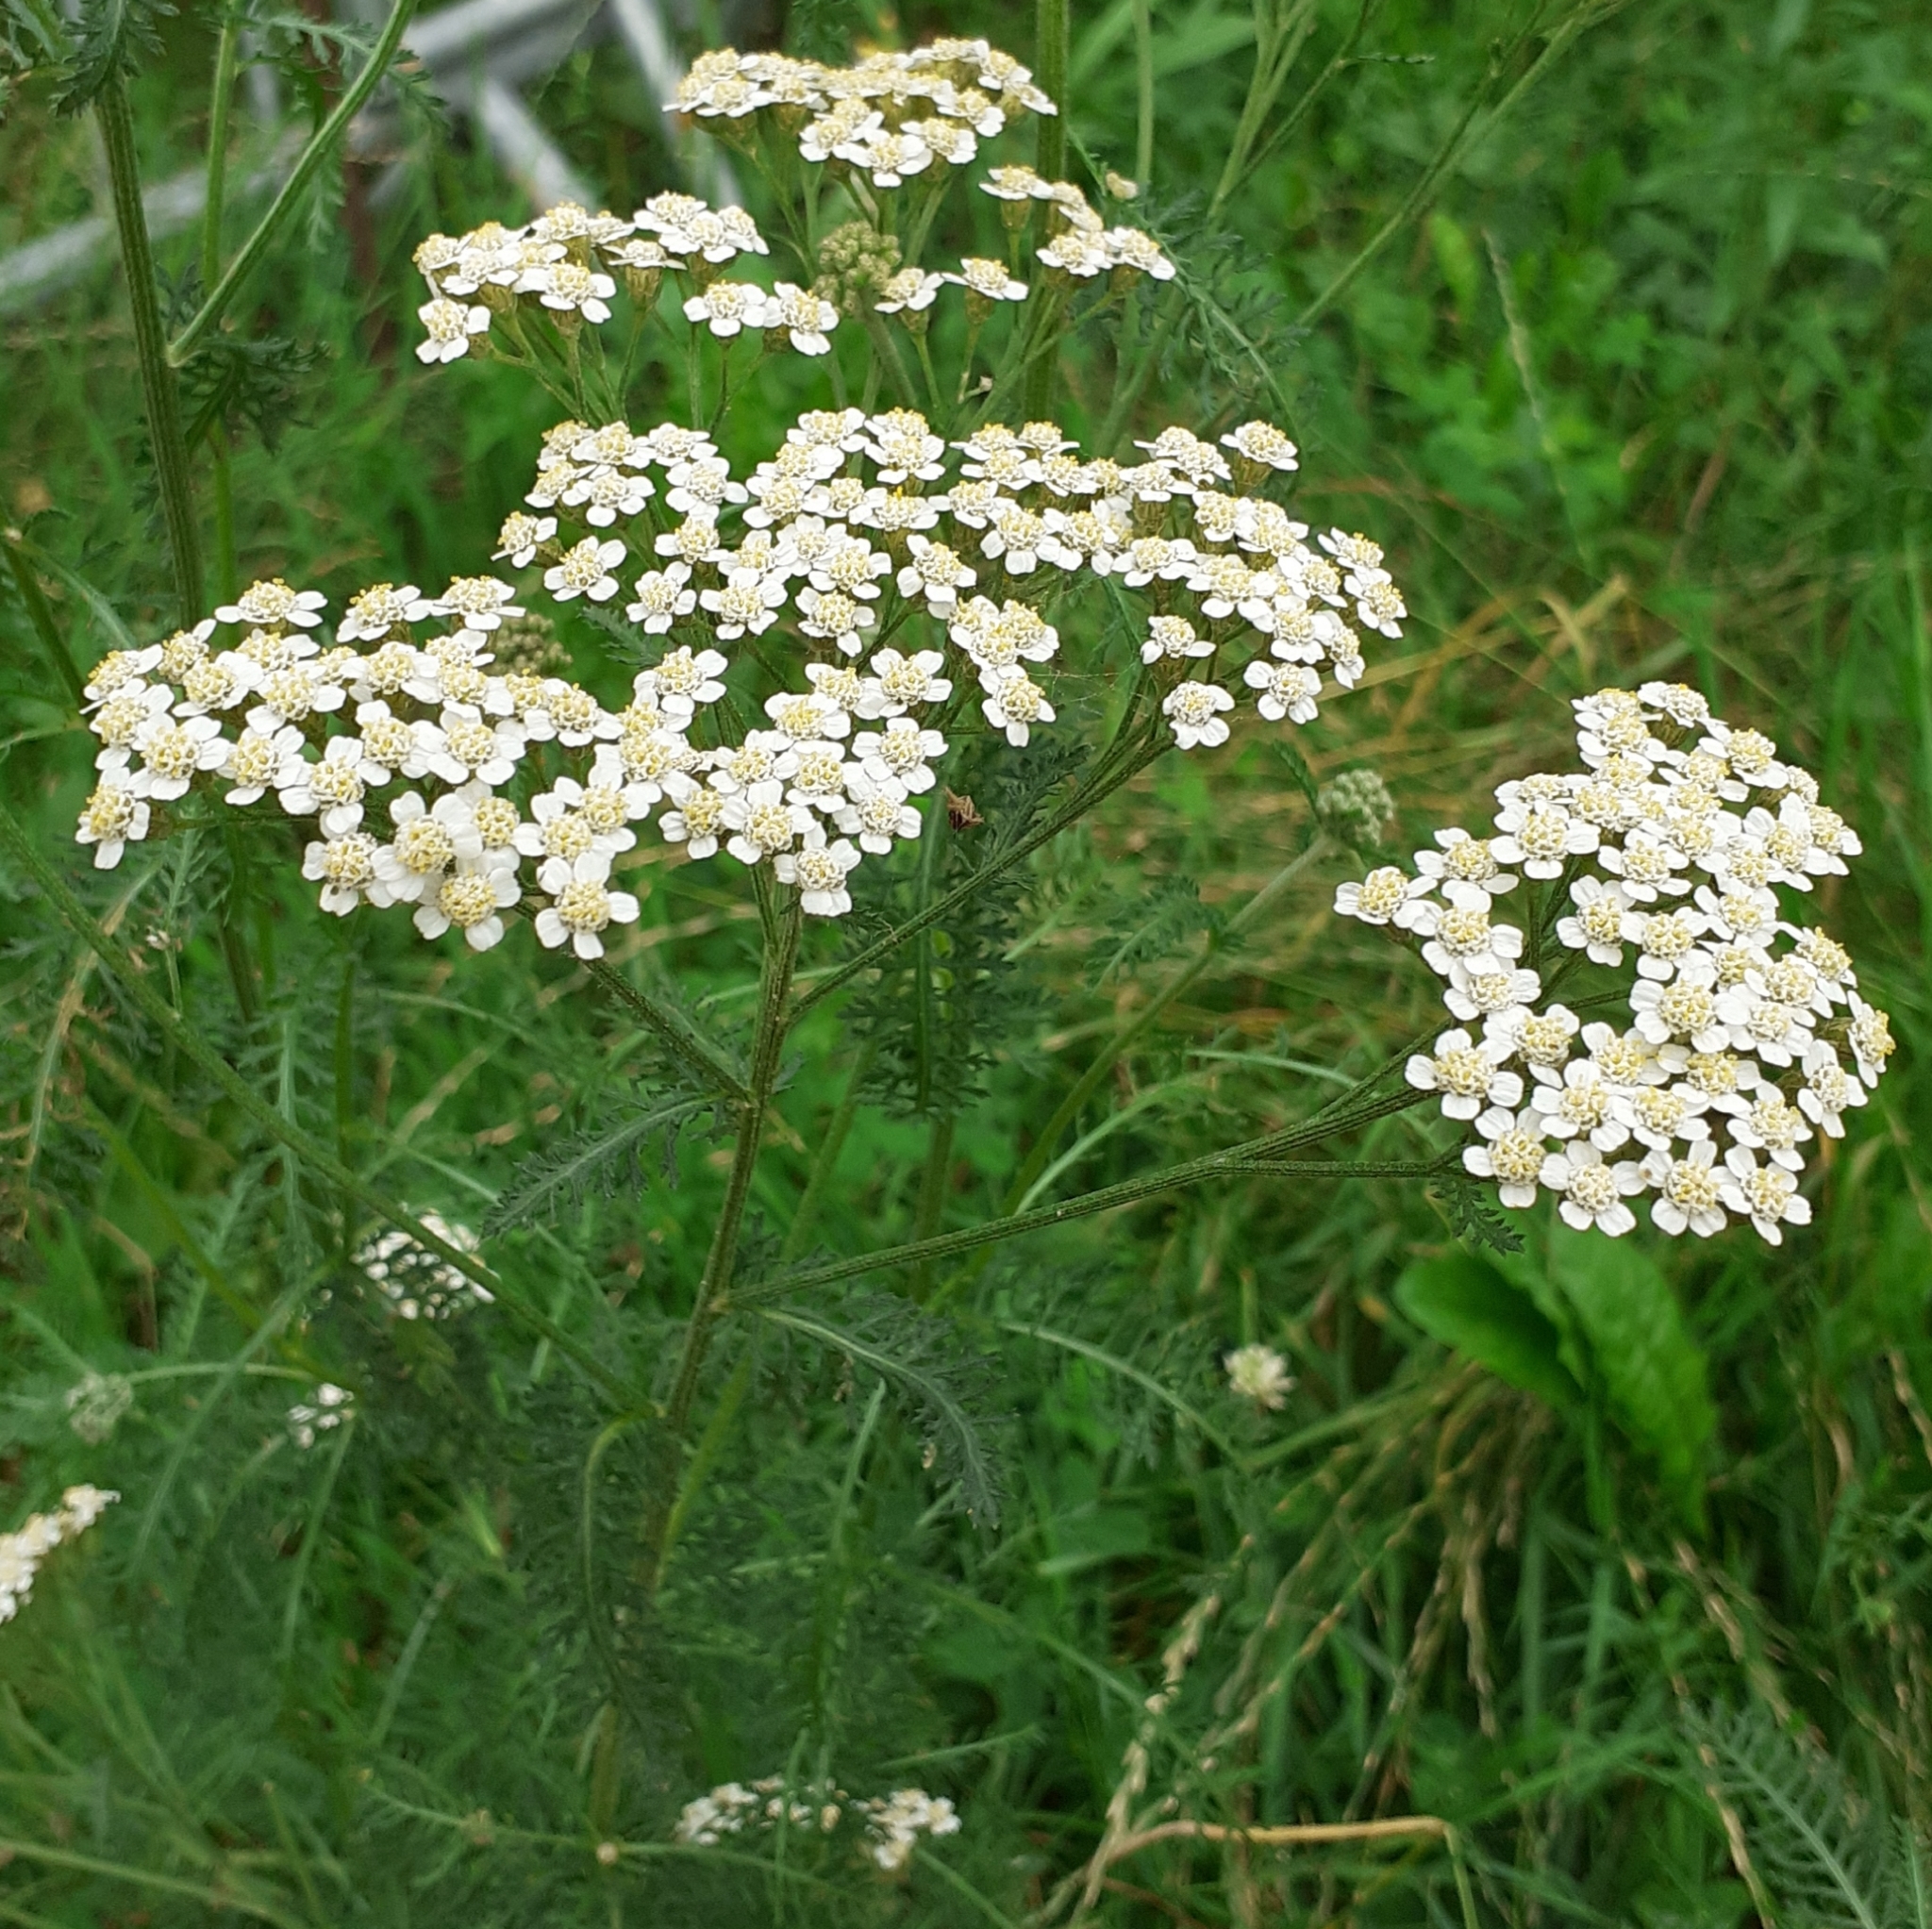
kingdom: Plantae
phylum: Tracheophyta
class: Magnoliopsida
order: Asterales
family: Asteraceae
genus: Achillea
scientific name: Achillea millefolium
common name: Yarrow
